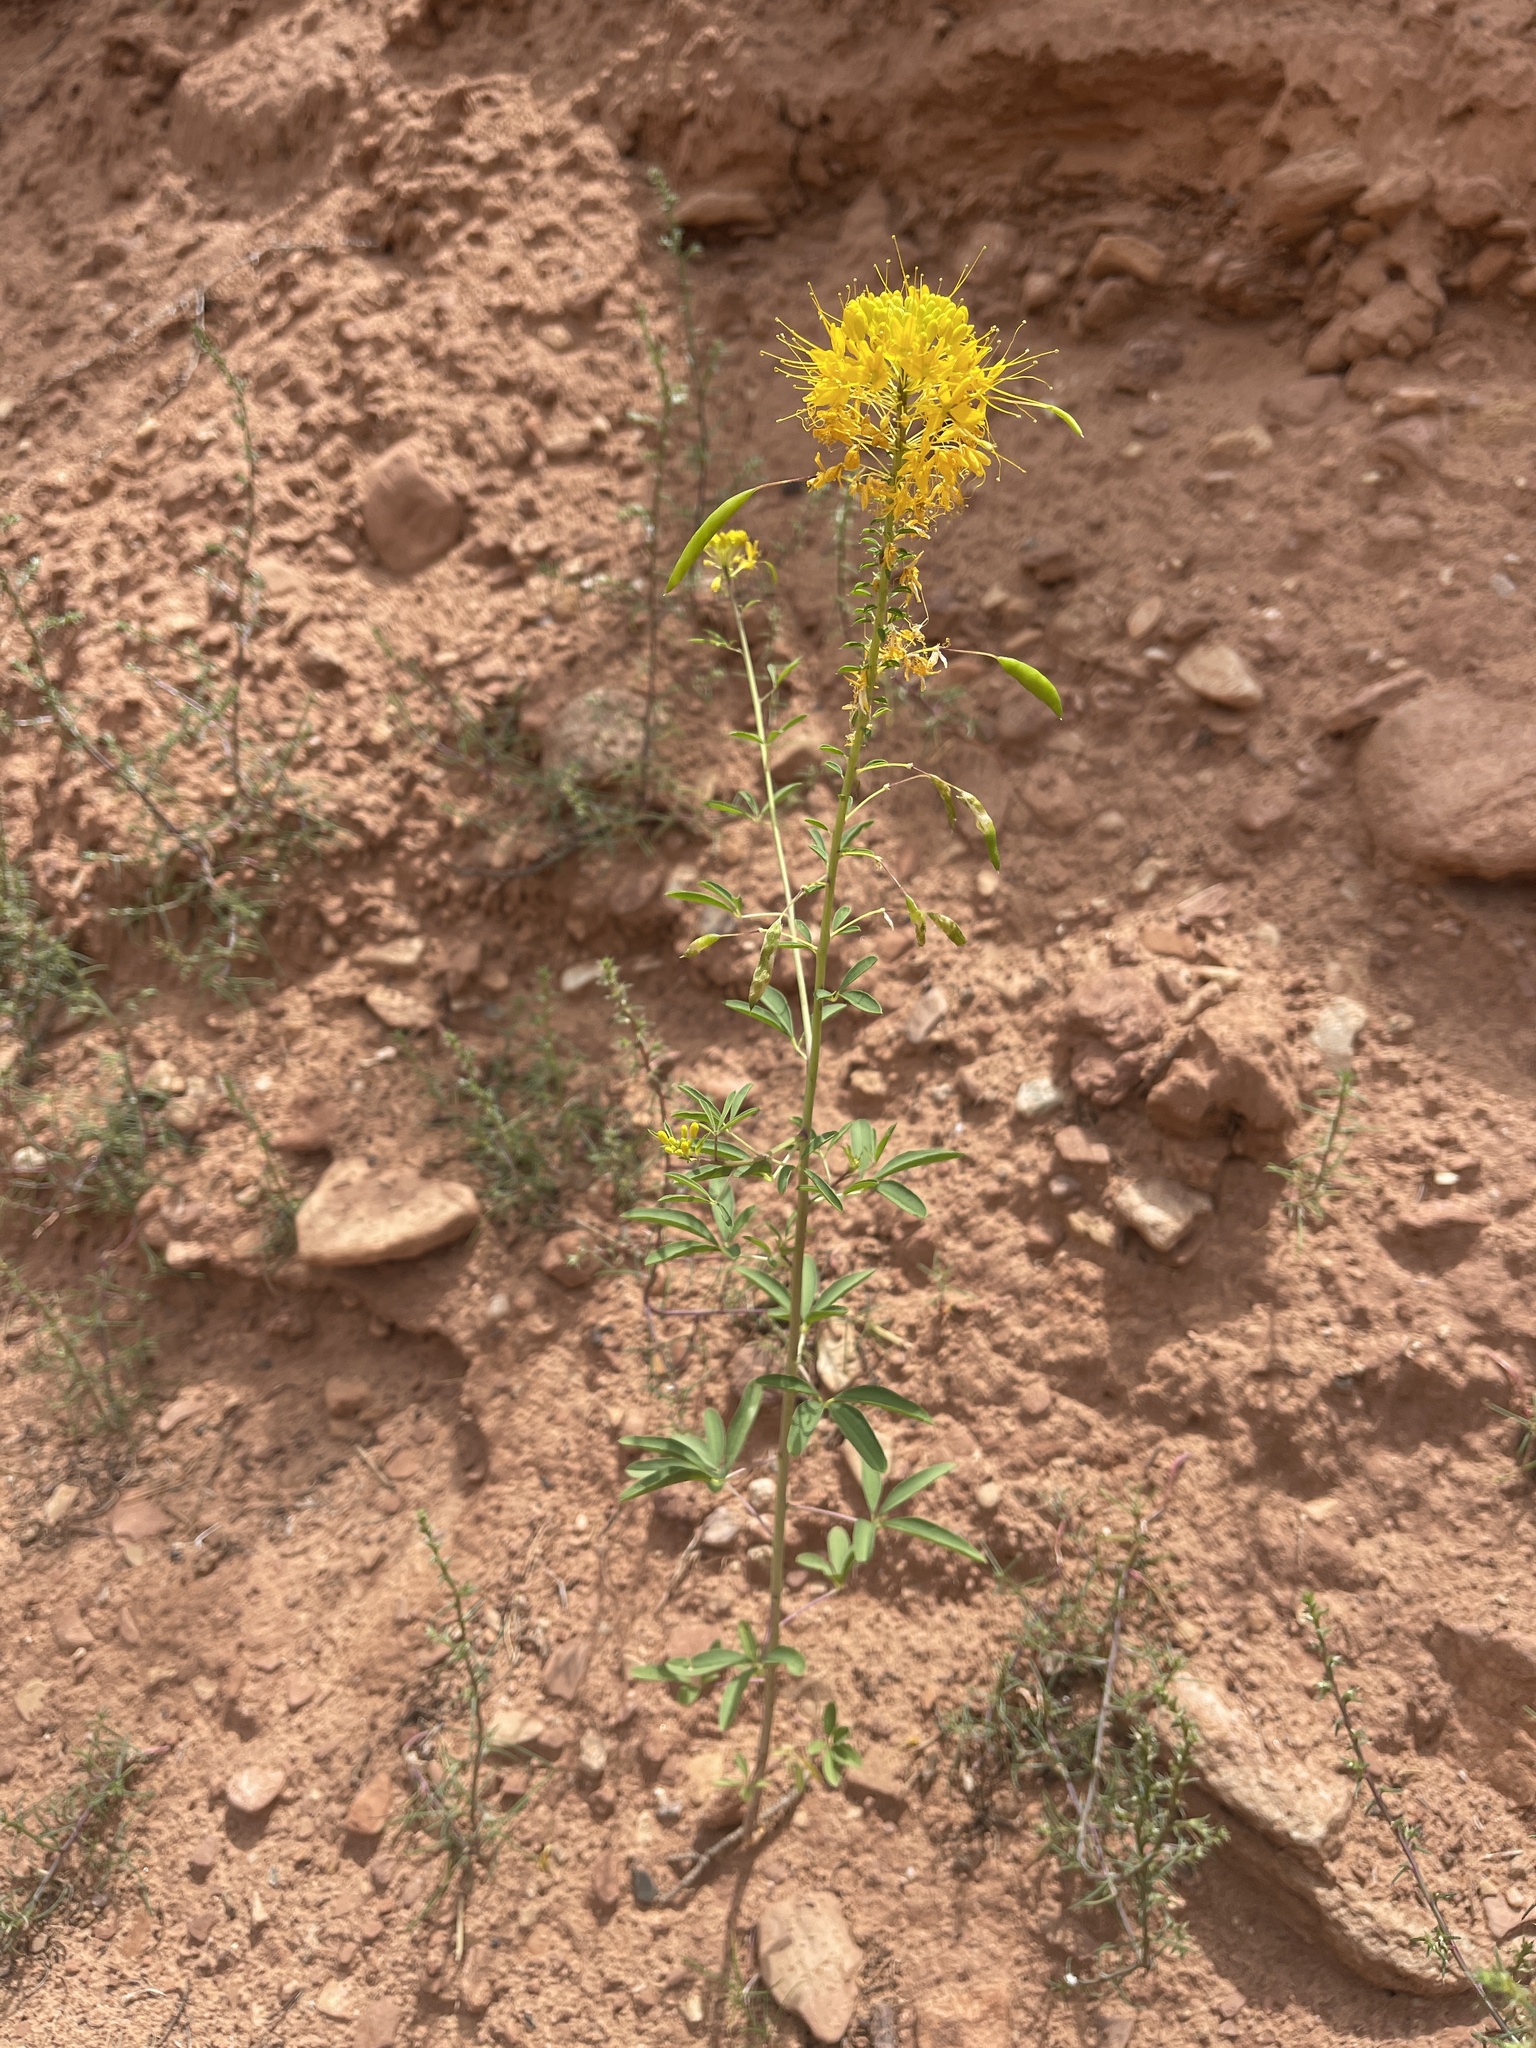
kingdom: Plantae
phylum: Tracheophyta
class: Magnoliopsida
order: Brassicales
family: Cleomaceae
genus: Cleomella
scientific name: Cleomella lutea
